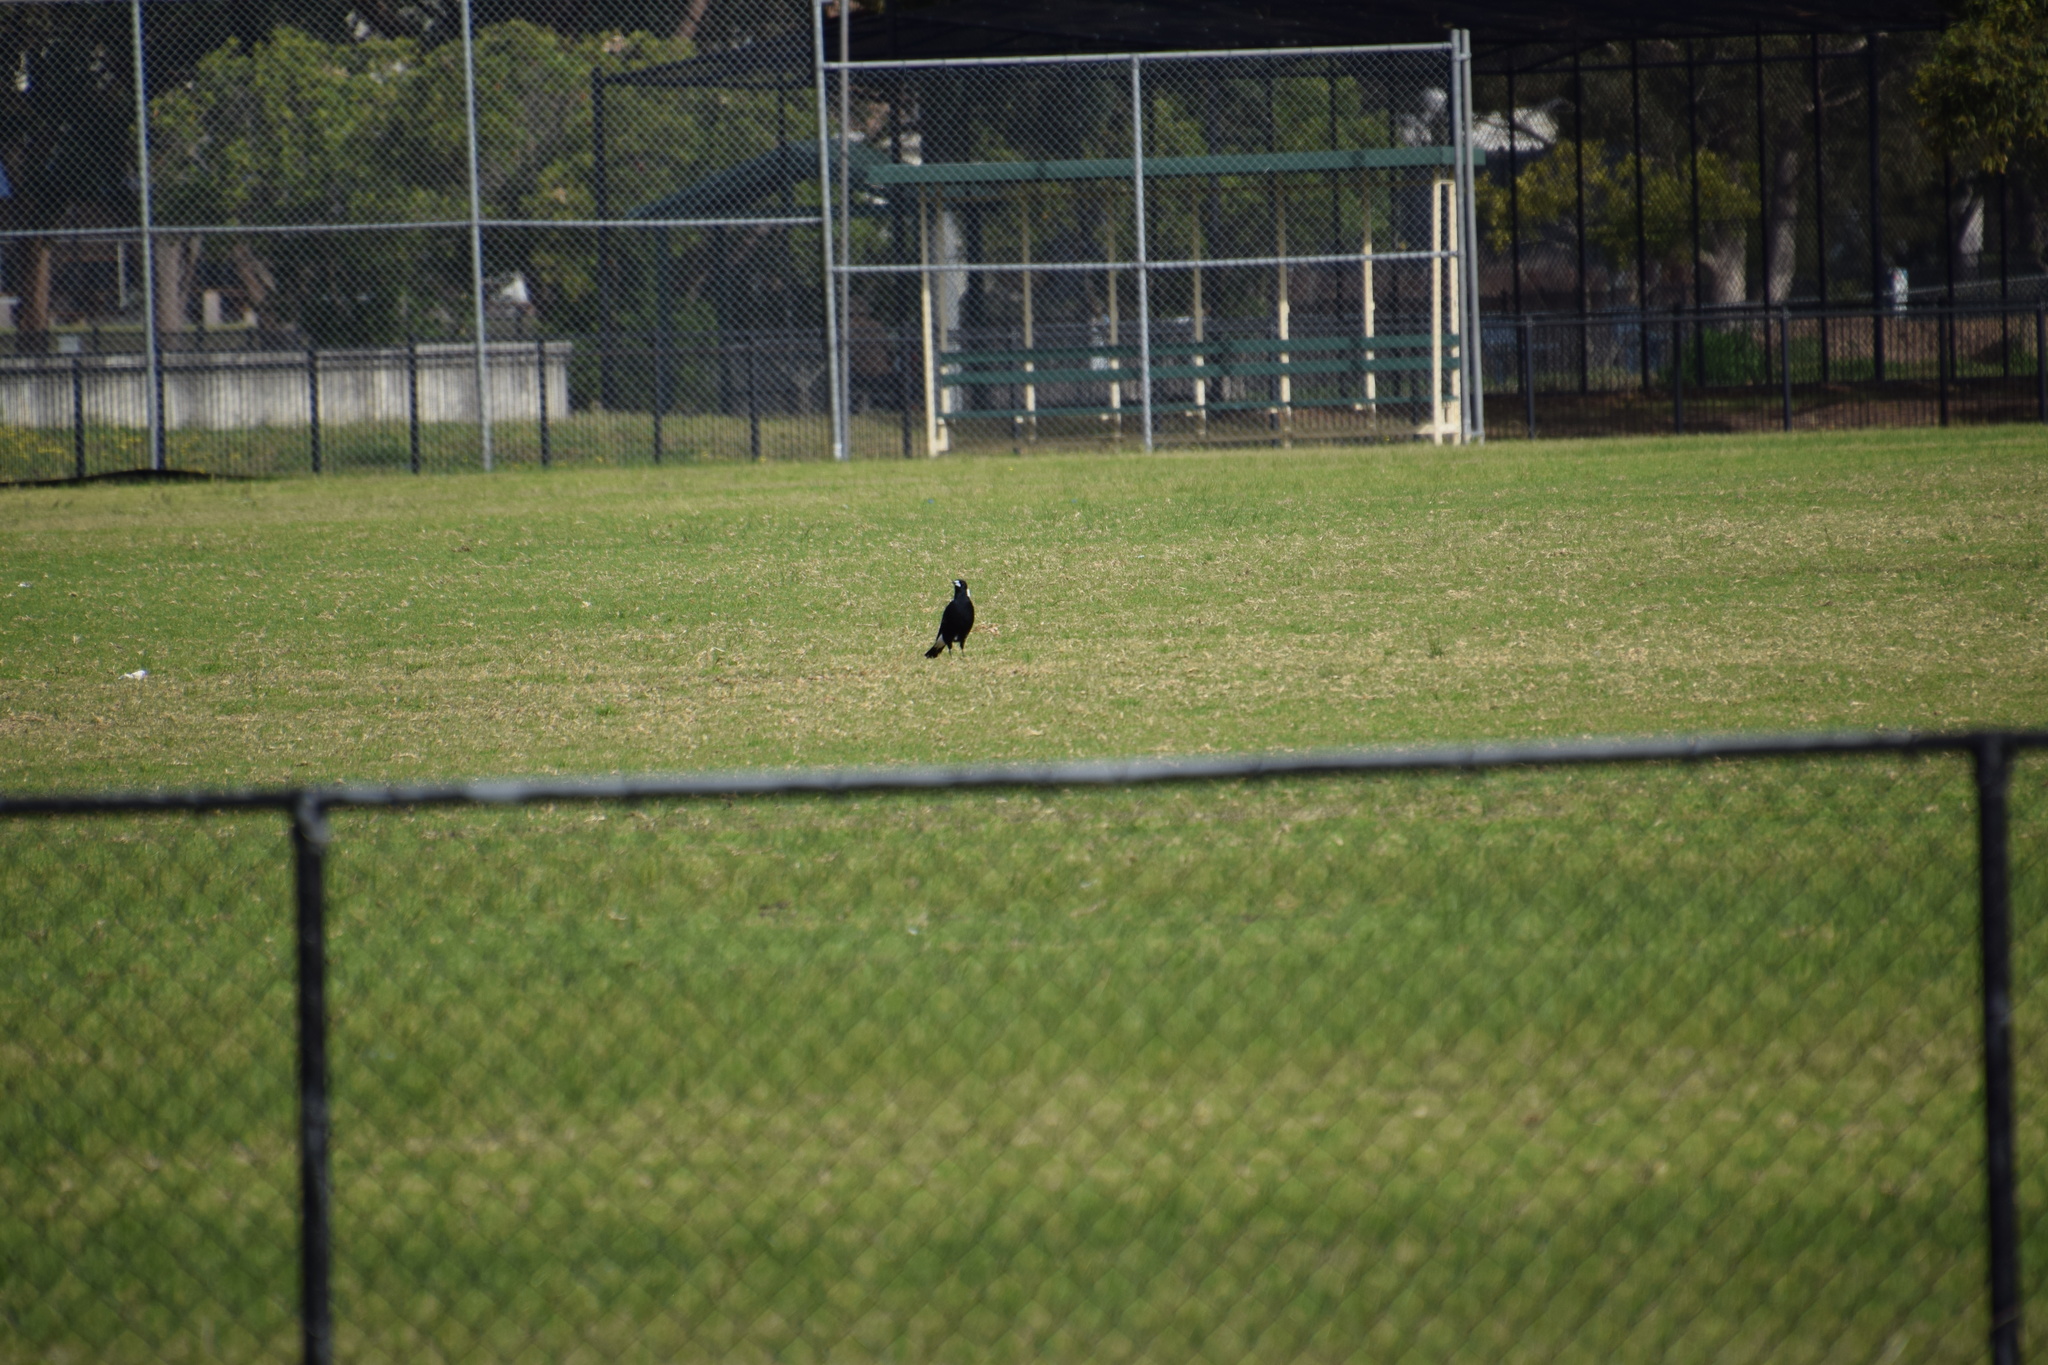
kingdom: Animalia
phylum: Chordata
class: Aves
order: Passeriformes
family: Cracticidae
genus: Gymnorhina
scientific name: Gymnorhina tibicen
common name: Australian magpie
